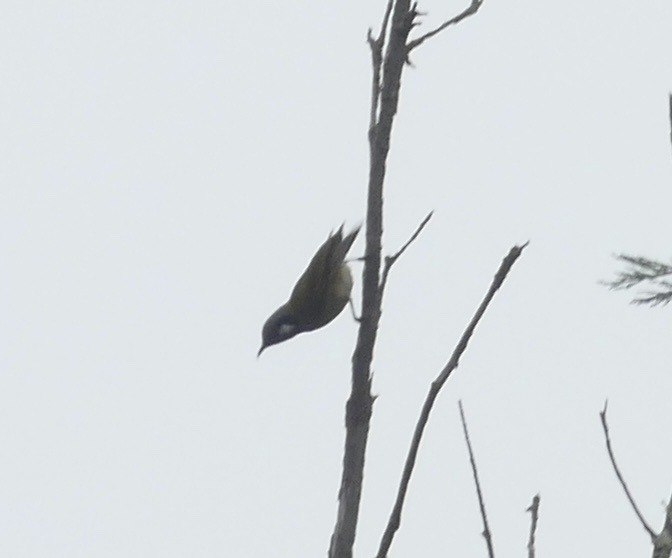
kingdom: Animalia
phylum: Chordata
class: Aves
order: Passeriformes
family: Meliphagidae
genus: Nesoptilotis
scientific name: Nesoptilotis leucotis
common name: White-eared honeyeater
